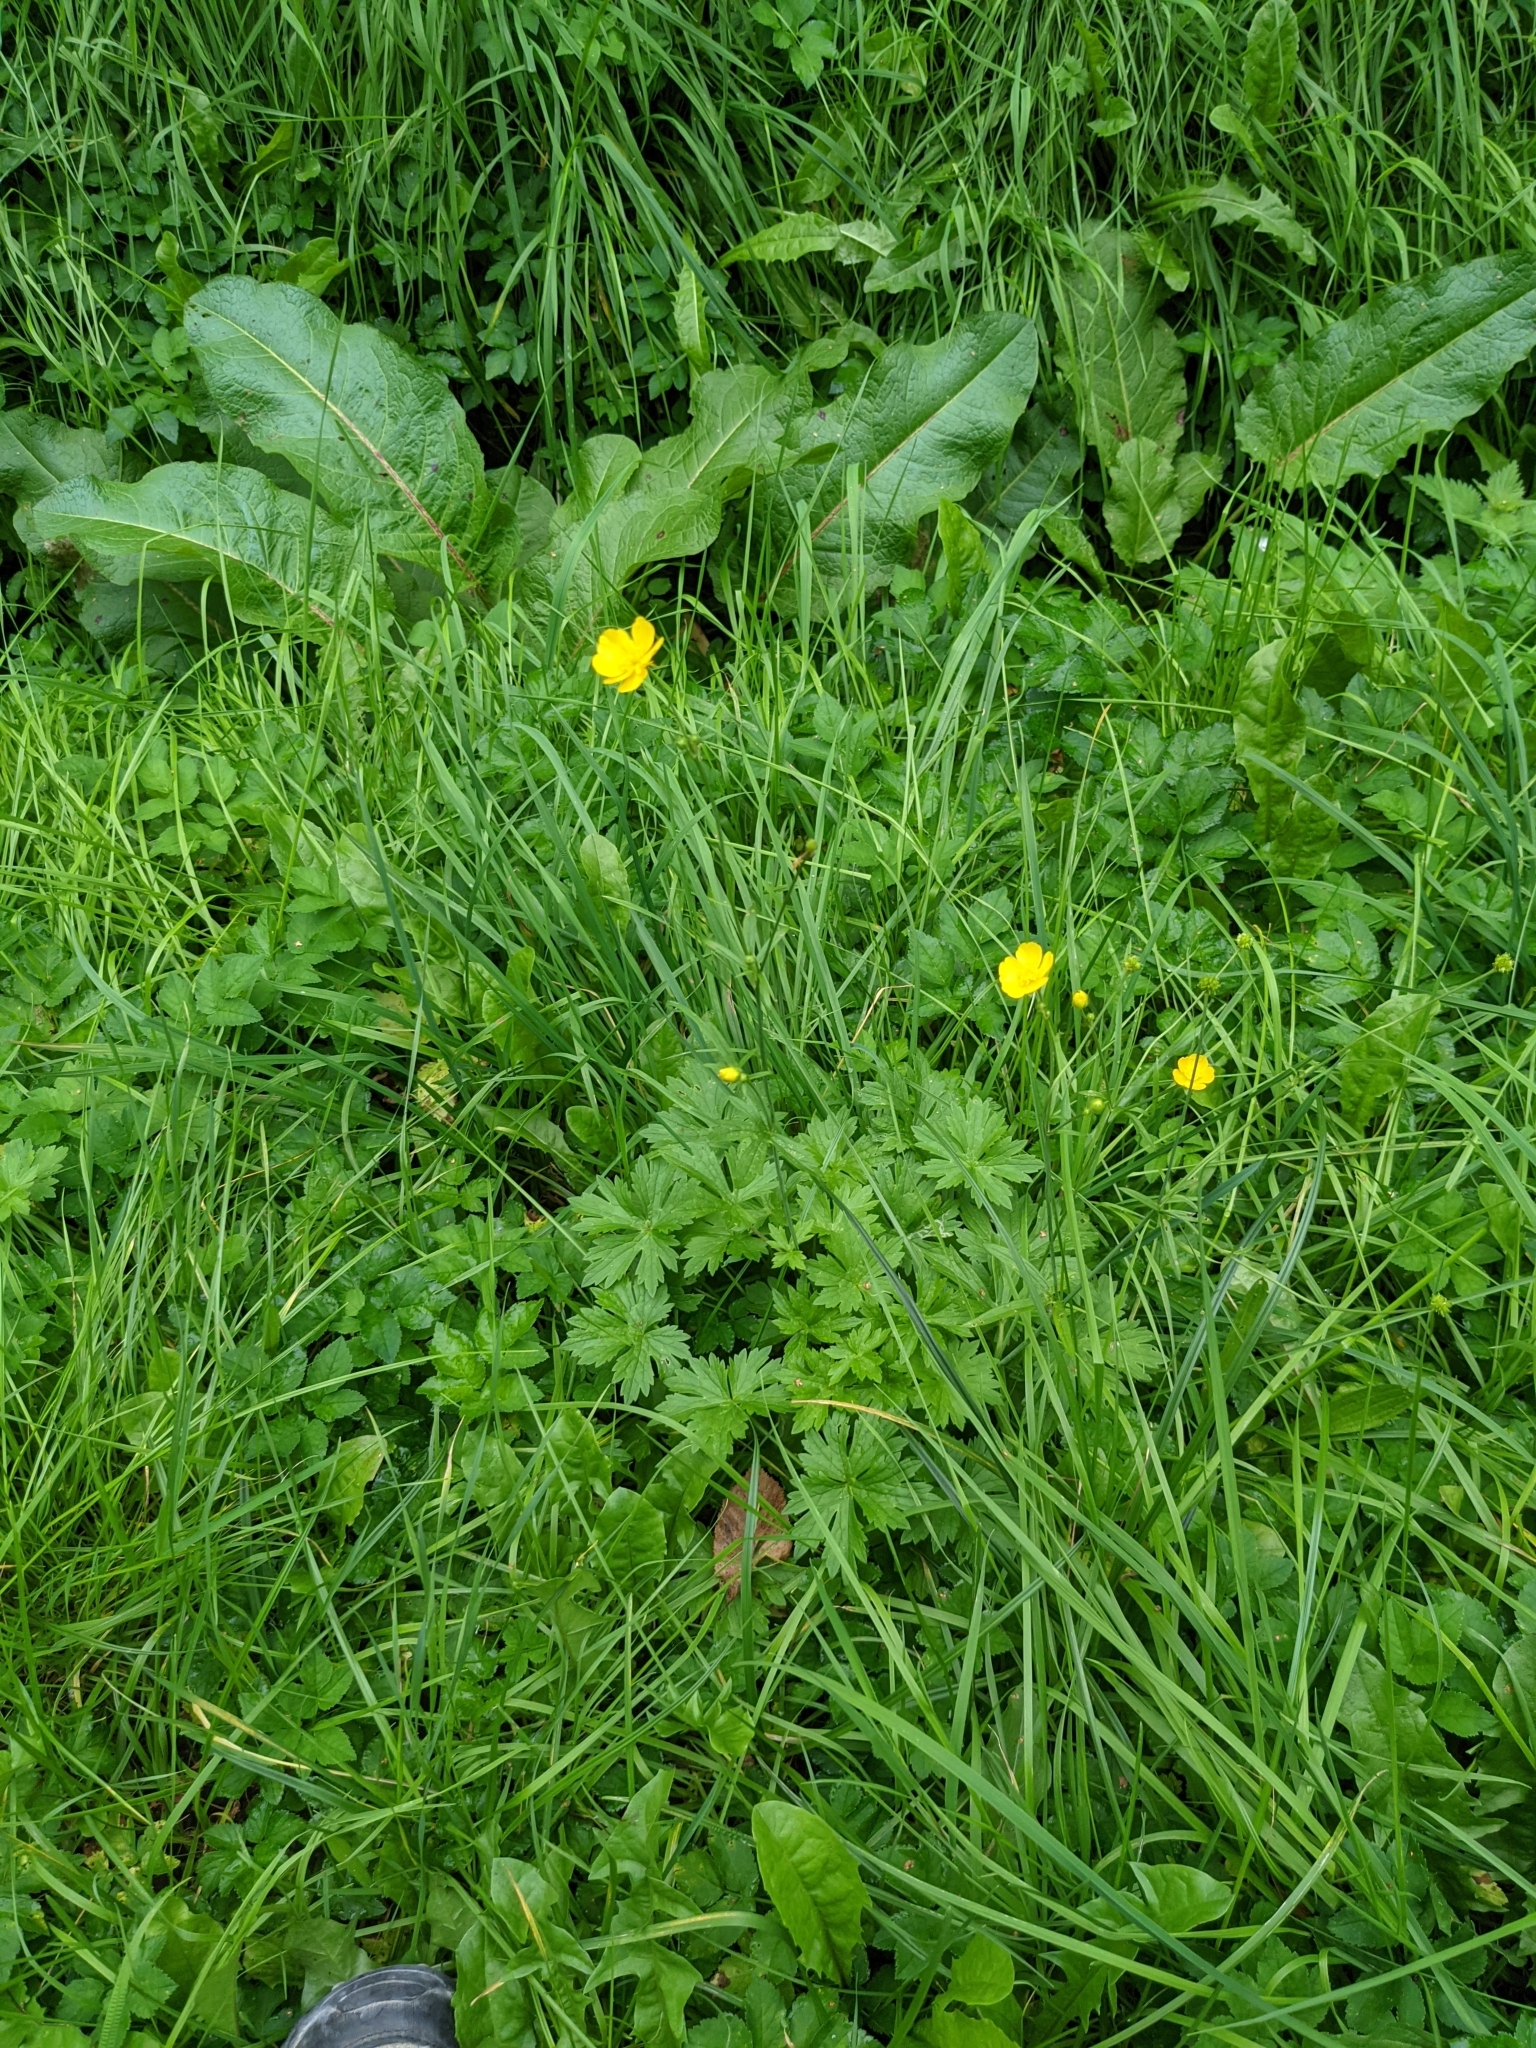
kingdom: Plantae
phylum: Tracheophyta
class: Magnoliopsida
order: Ranunculales
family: Ranunculaceae
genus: Ranunculus
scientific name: Ranunculus acris
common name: Meadow buttercup
